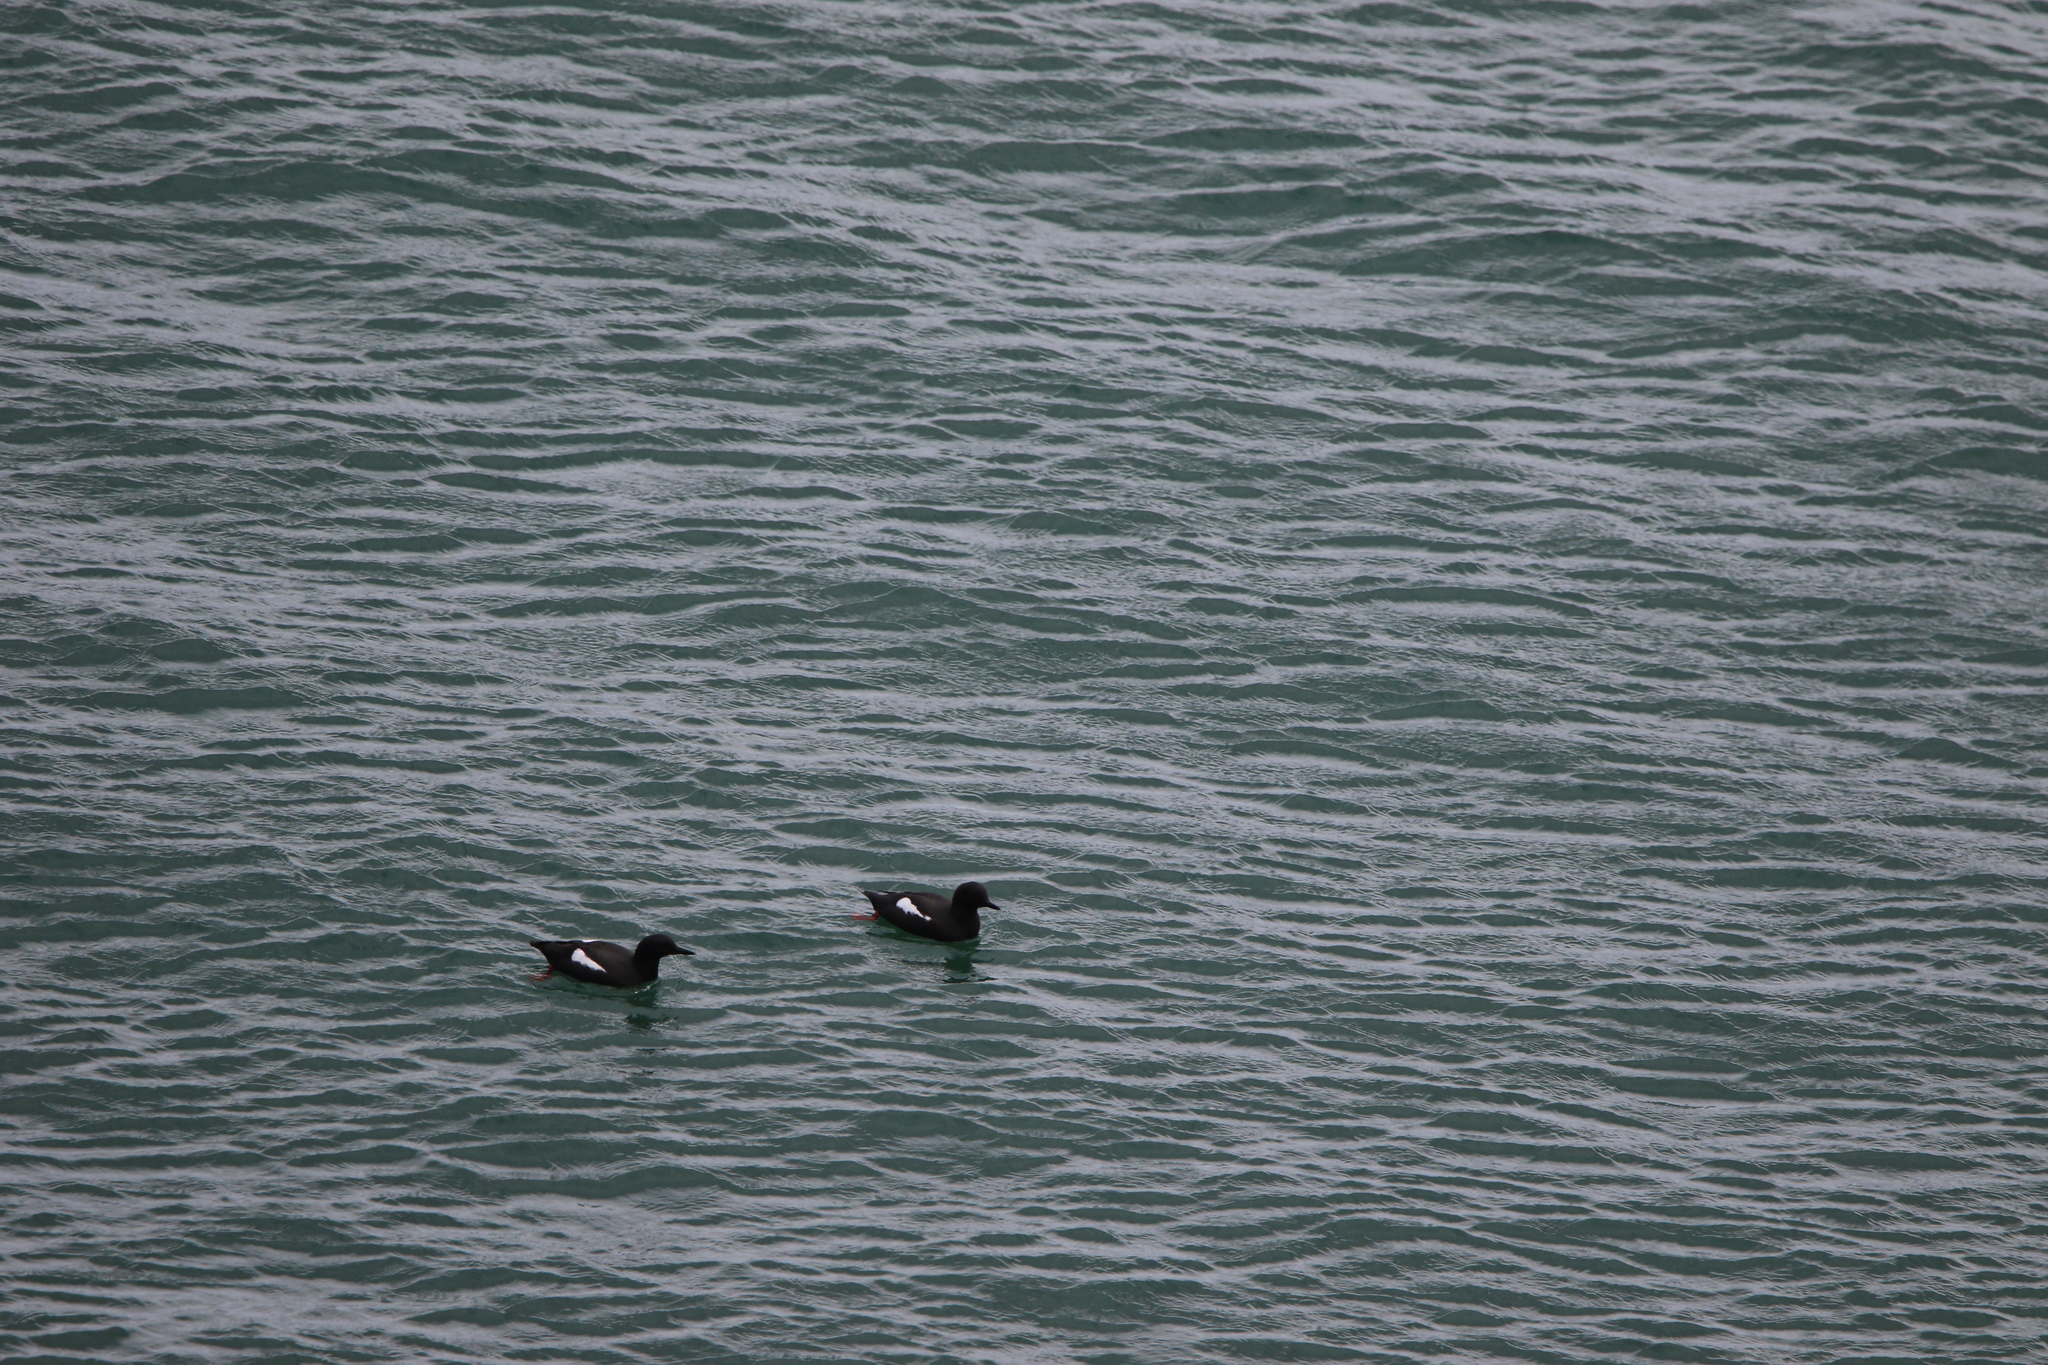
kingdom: Animalia
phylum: Chordata
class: Aves
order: Charadriiformes
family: Alcidae
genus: Cepphus
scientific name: Cepphus columba
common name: Pigeon guillemot
